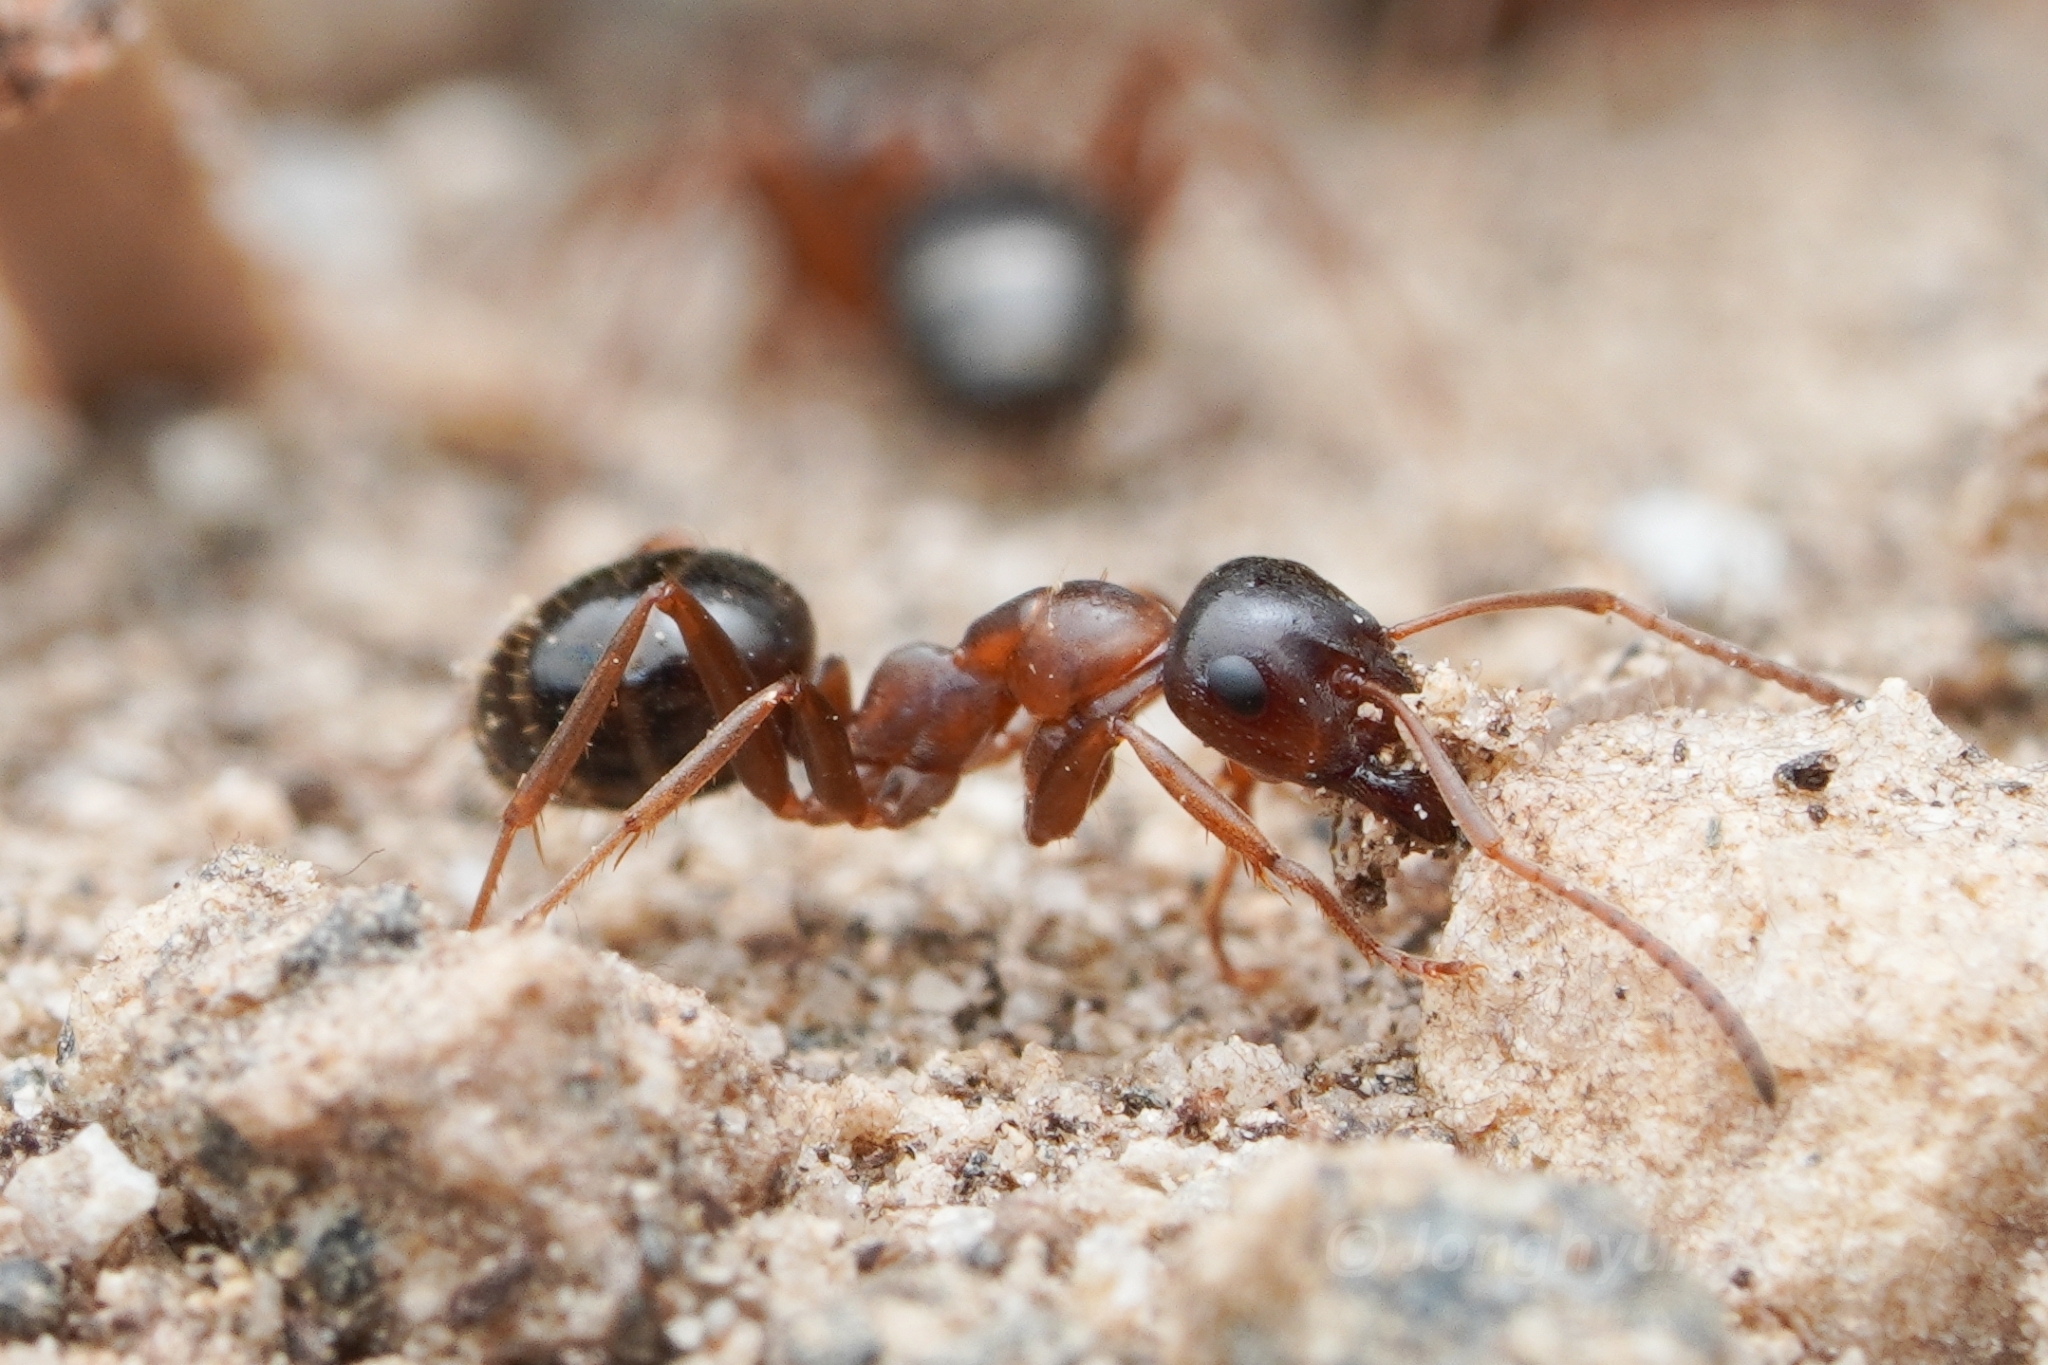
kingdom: Animalia
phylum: Arthropoda
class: Insecta
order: Hymenoptera
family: Formicidae
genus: Formica
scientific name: Formica subpolita
